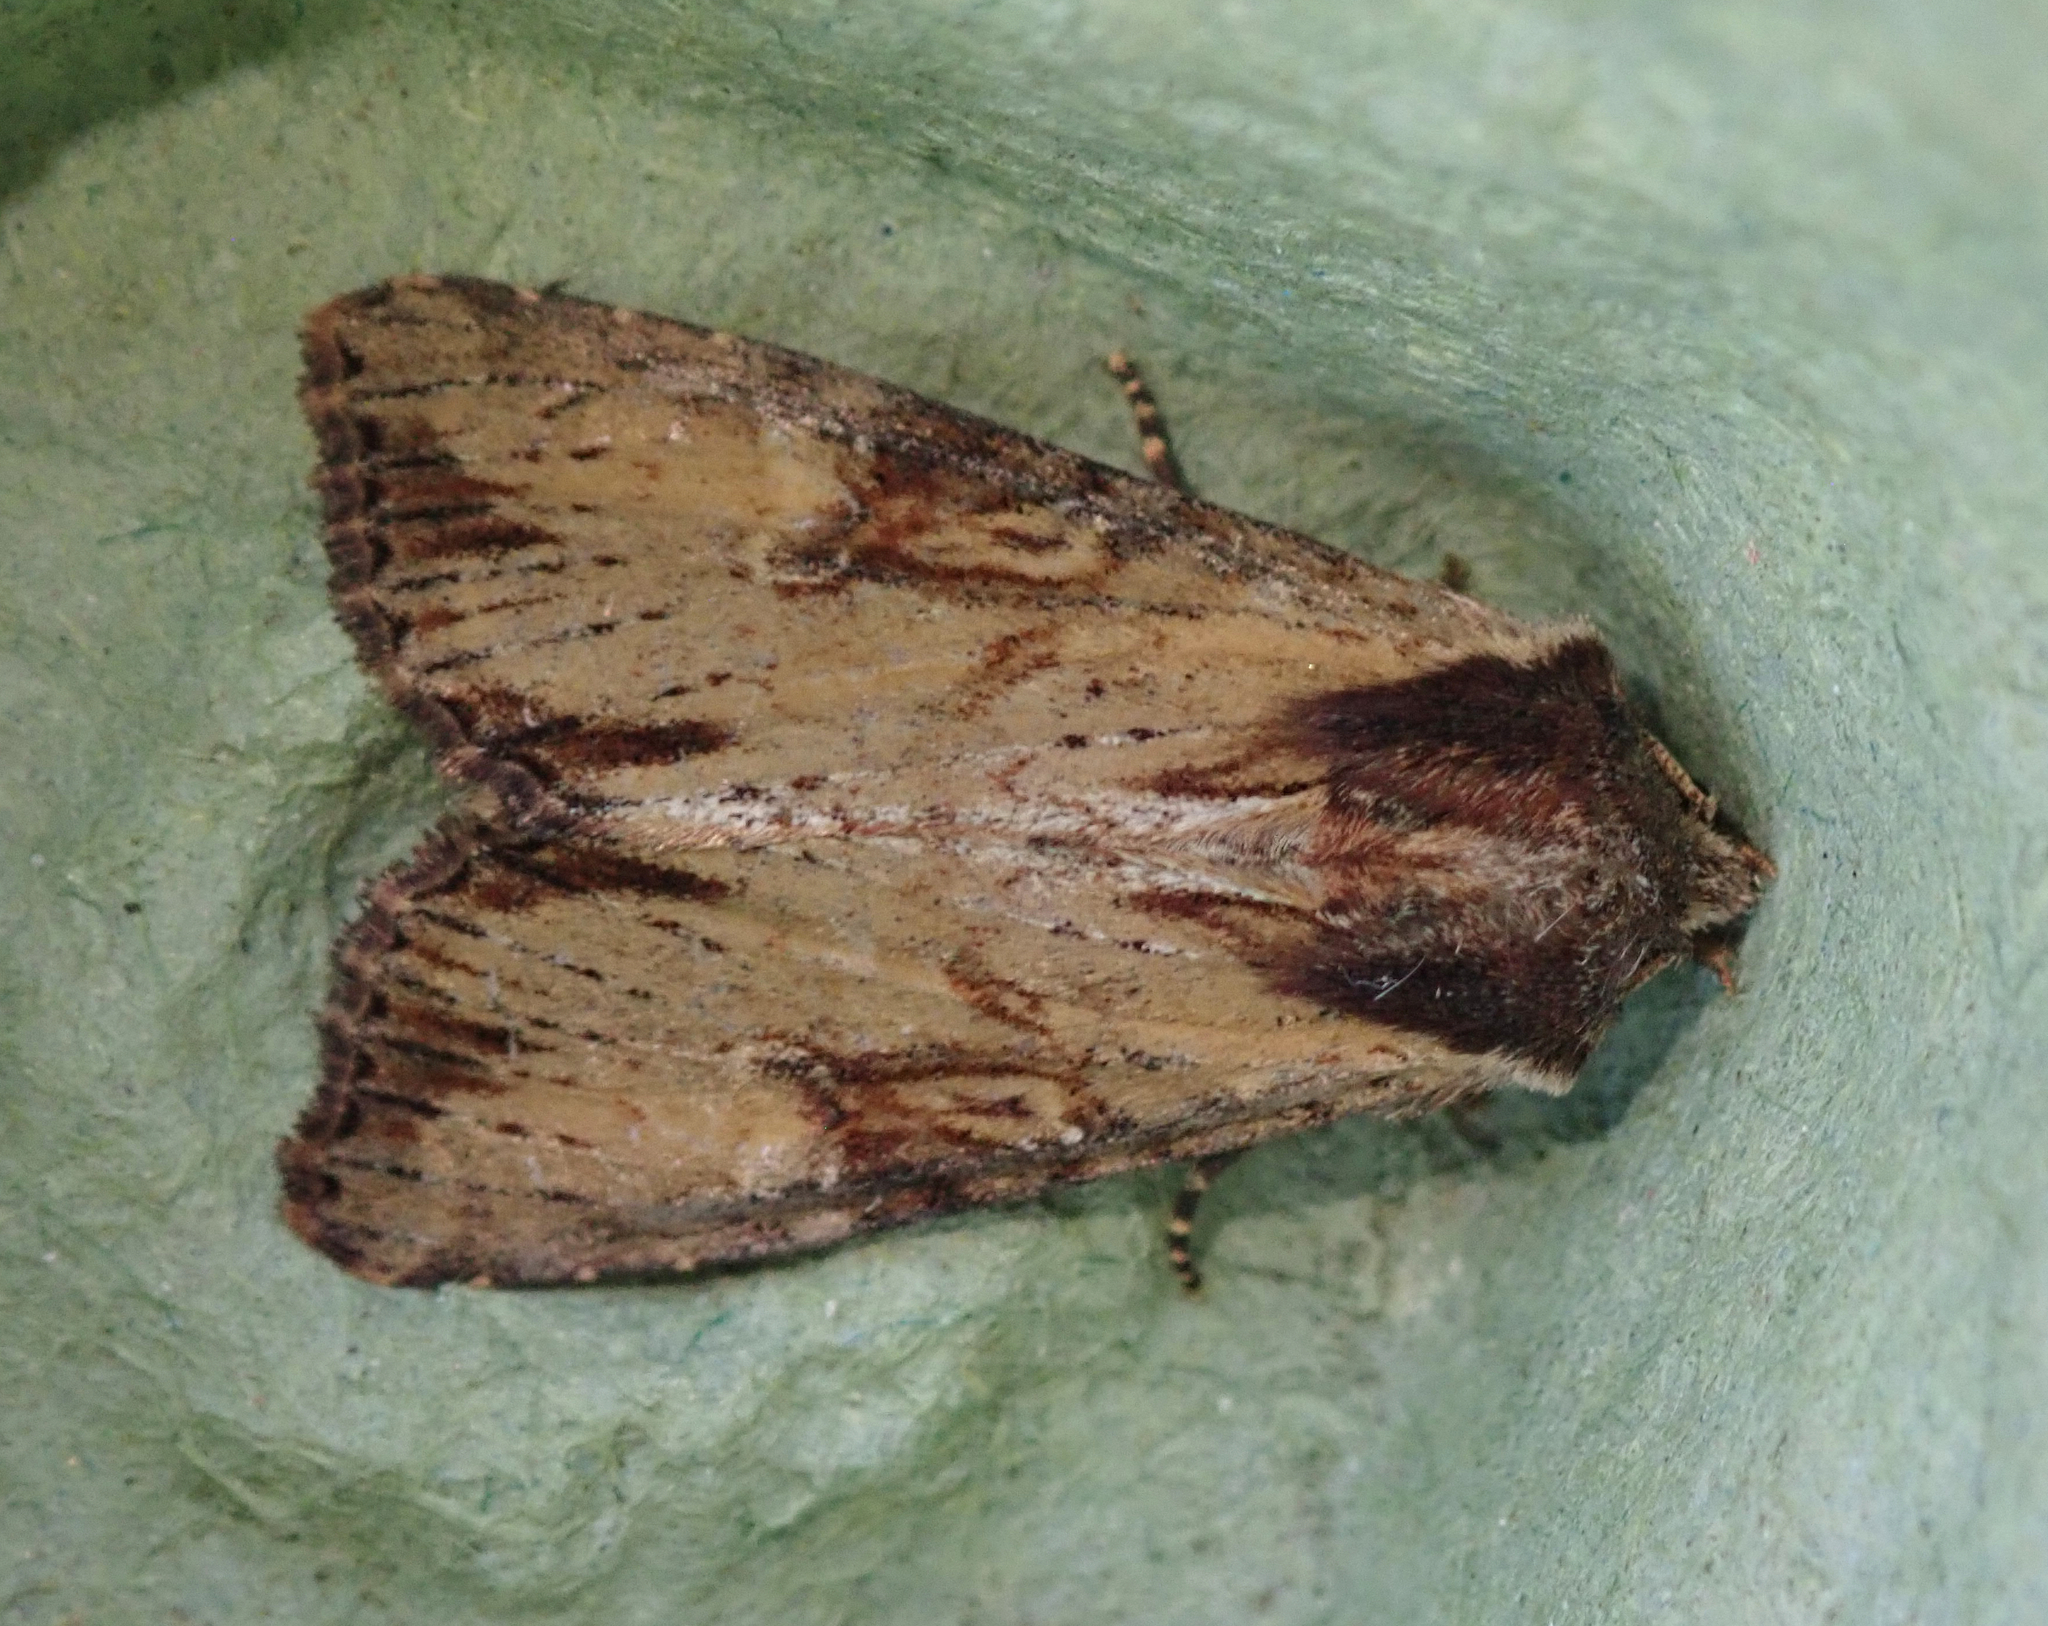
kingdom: Animalia
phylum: Arthropoda
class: Insecta
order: Lepidoptera
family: Noctuidae
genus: Apamea
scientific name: Apamea crenata
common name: Clouded-bordered brindle
